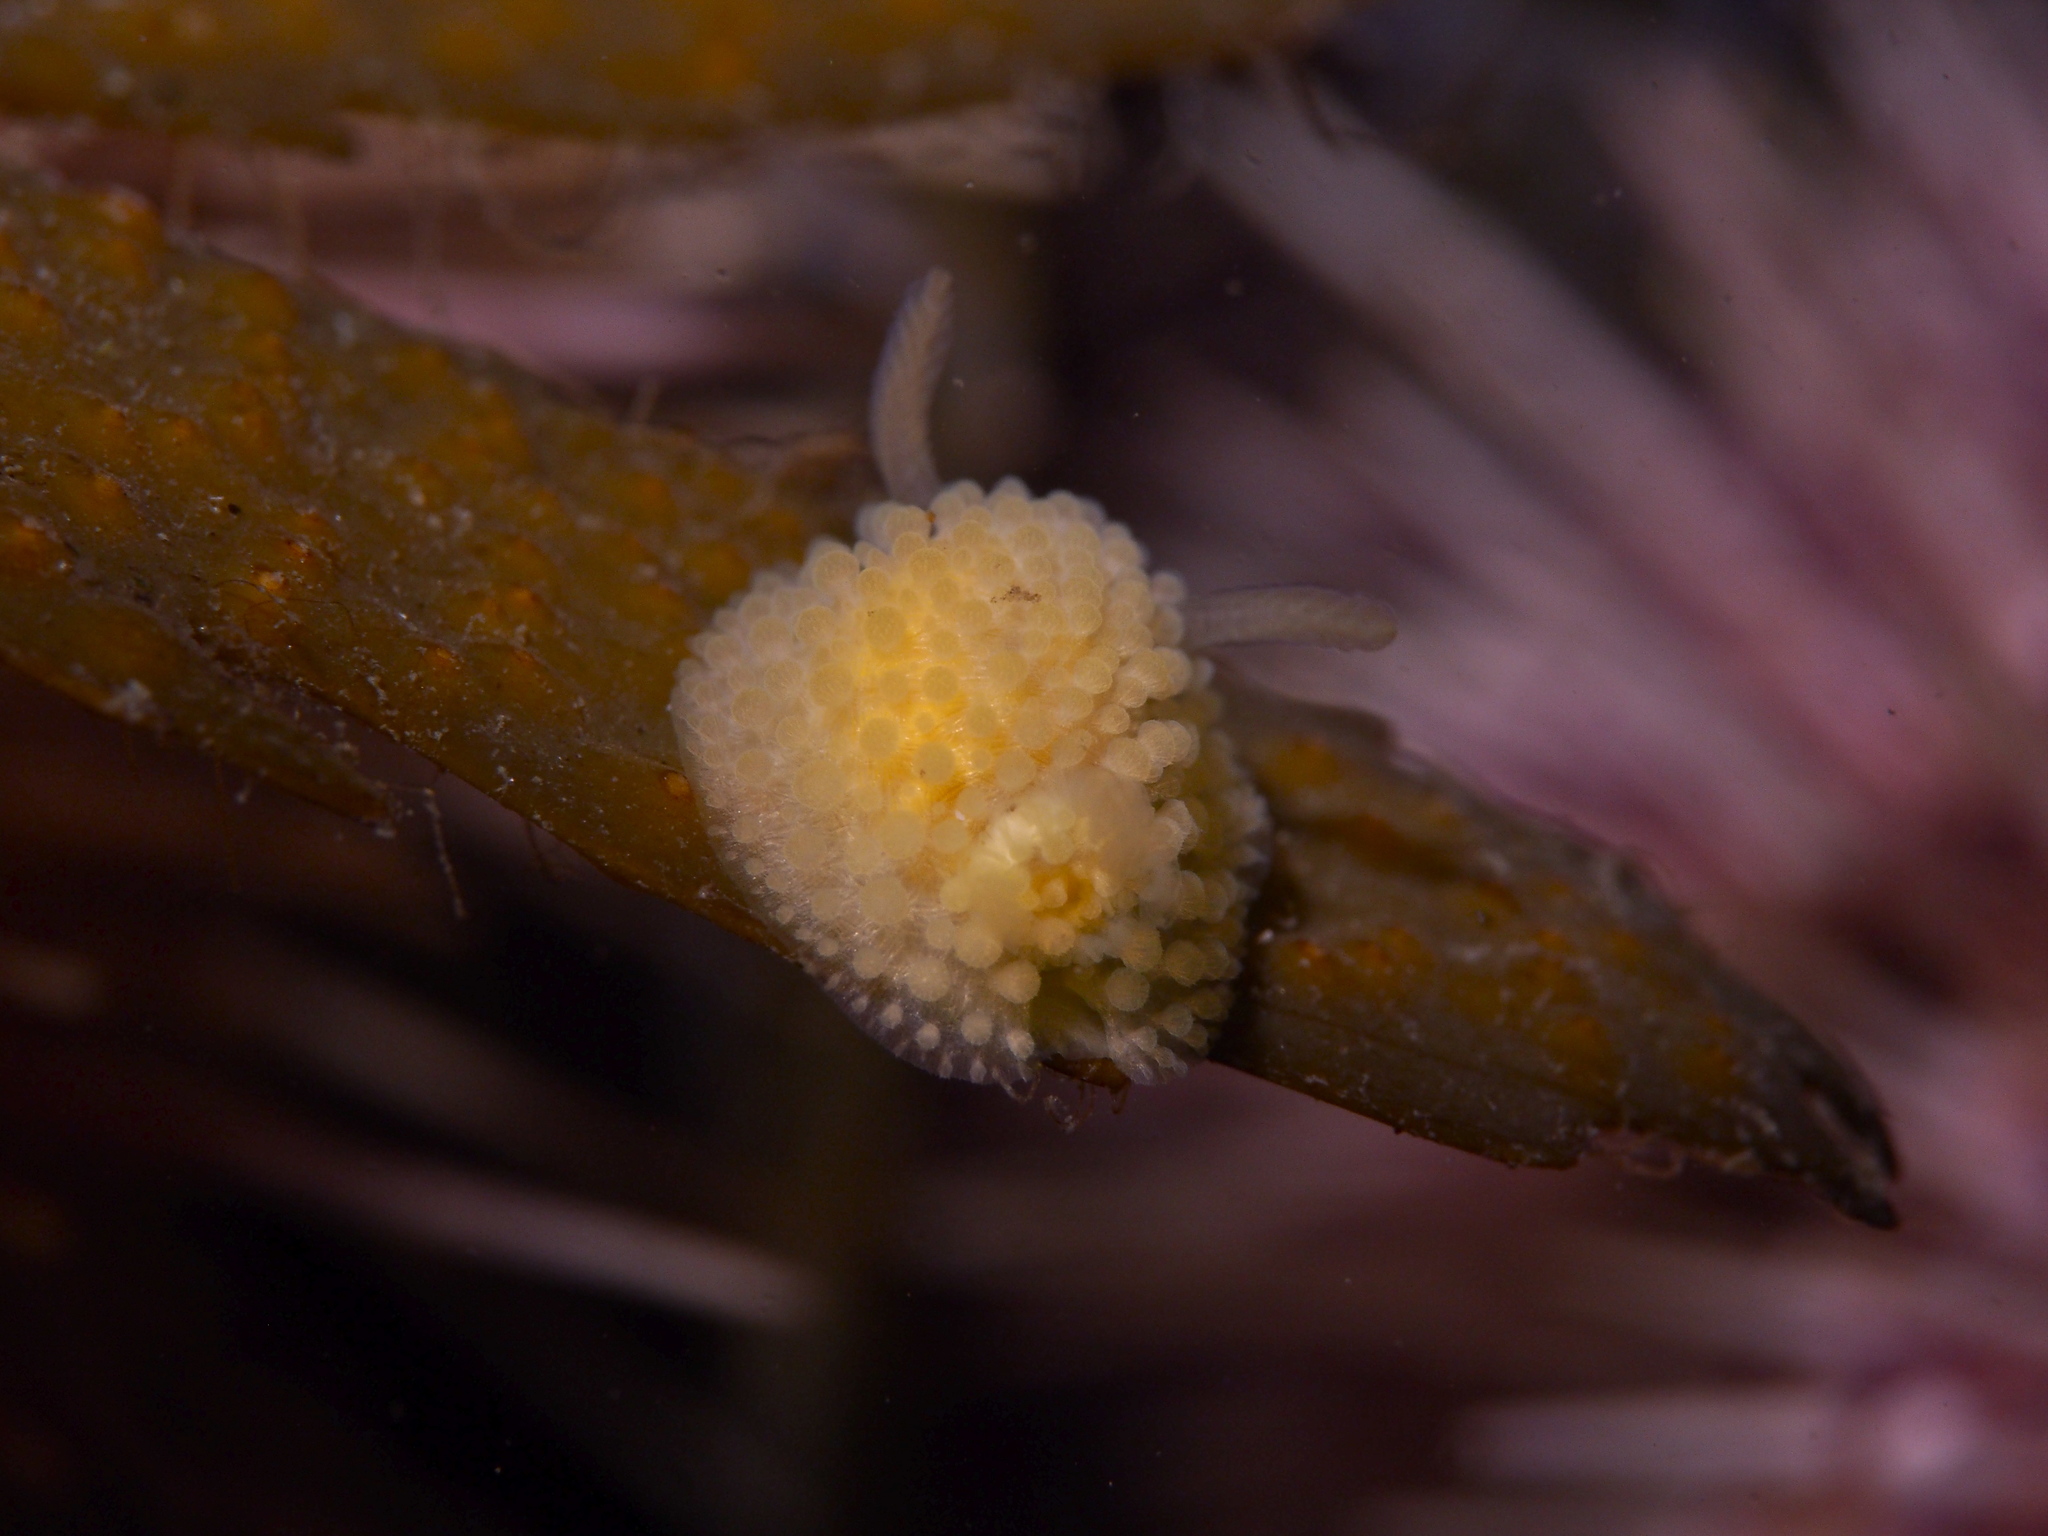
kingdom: Animalia
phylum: Mollusca
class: Gastropoda
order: Nudibranchia
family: Onchidorididae
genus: Onchidoris
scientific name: Onchidoris muricata
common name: Rough doris
